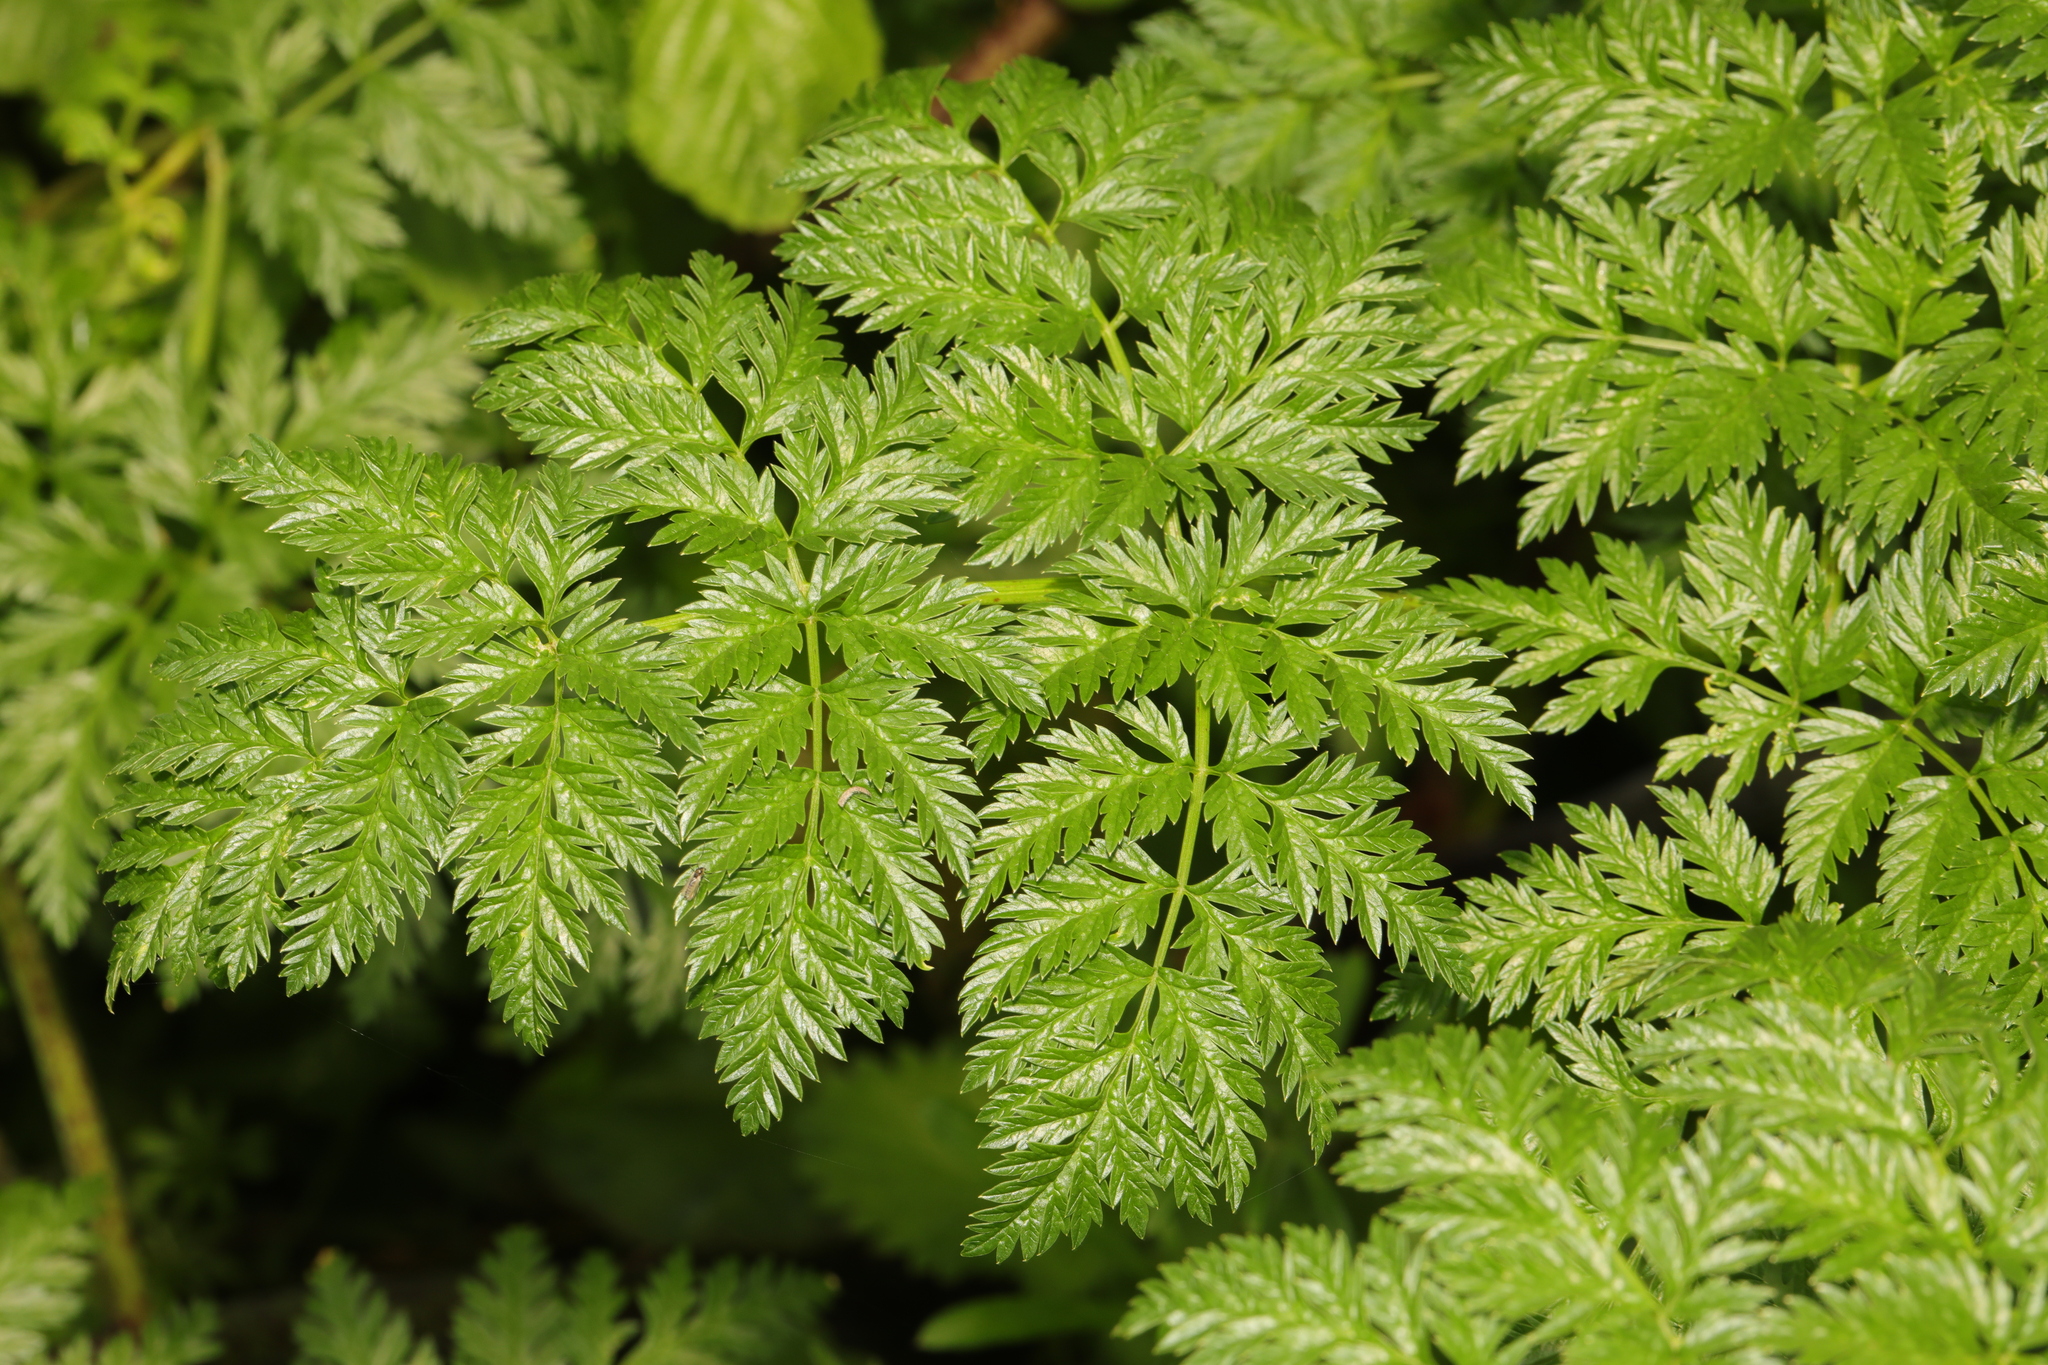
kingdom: Plantae
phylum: Tracheophyta
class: Magnoliopsida
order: Apiales
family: Apiaceae
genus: Anthriscus
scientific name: Anthriscus sylvestris
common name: Cow parsley
